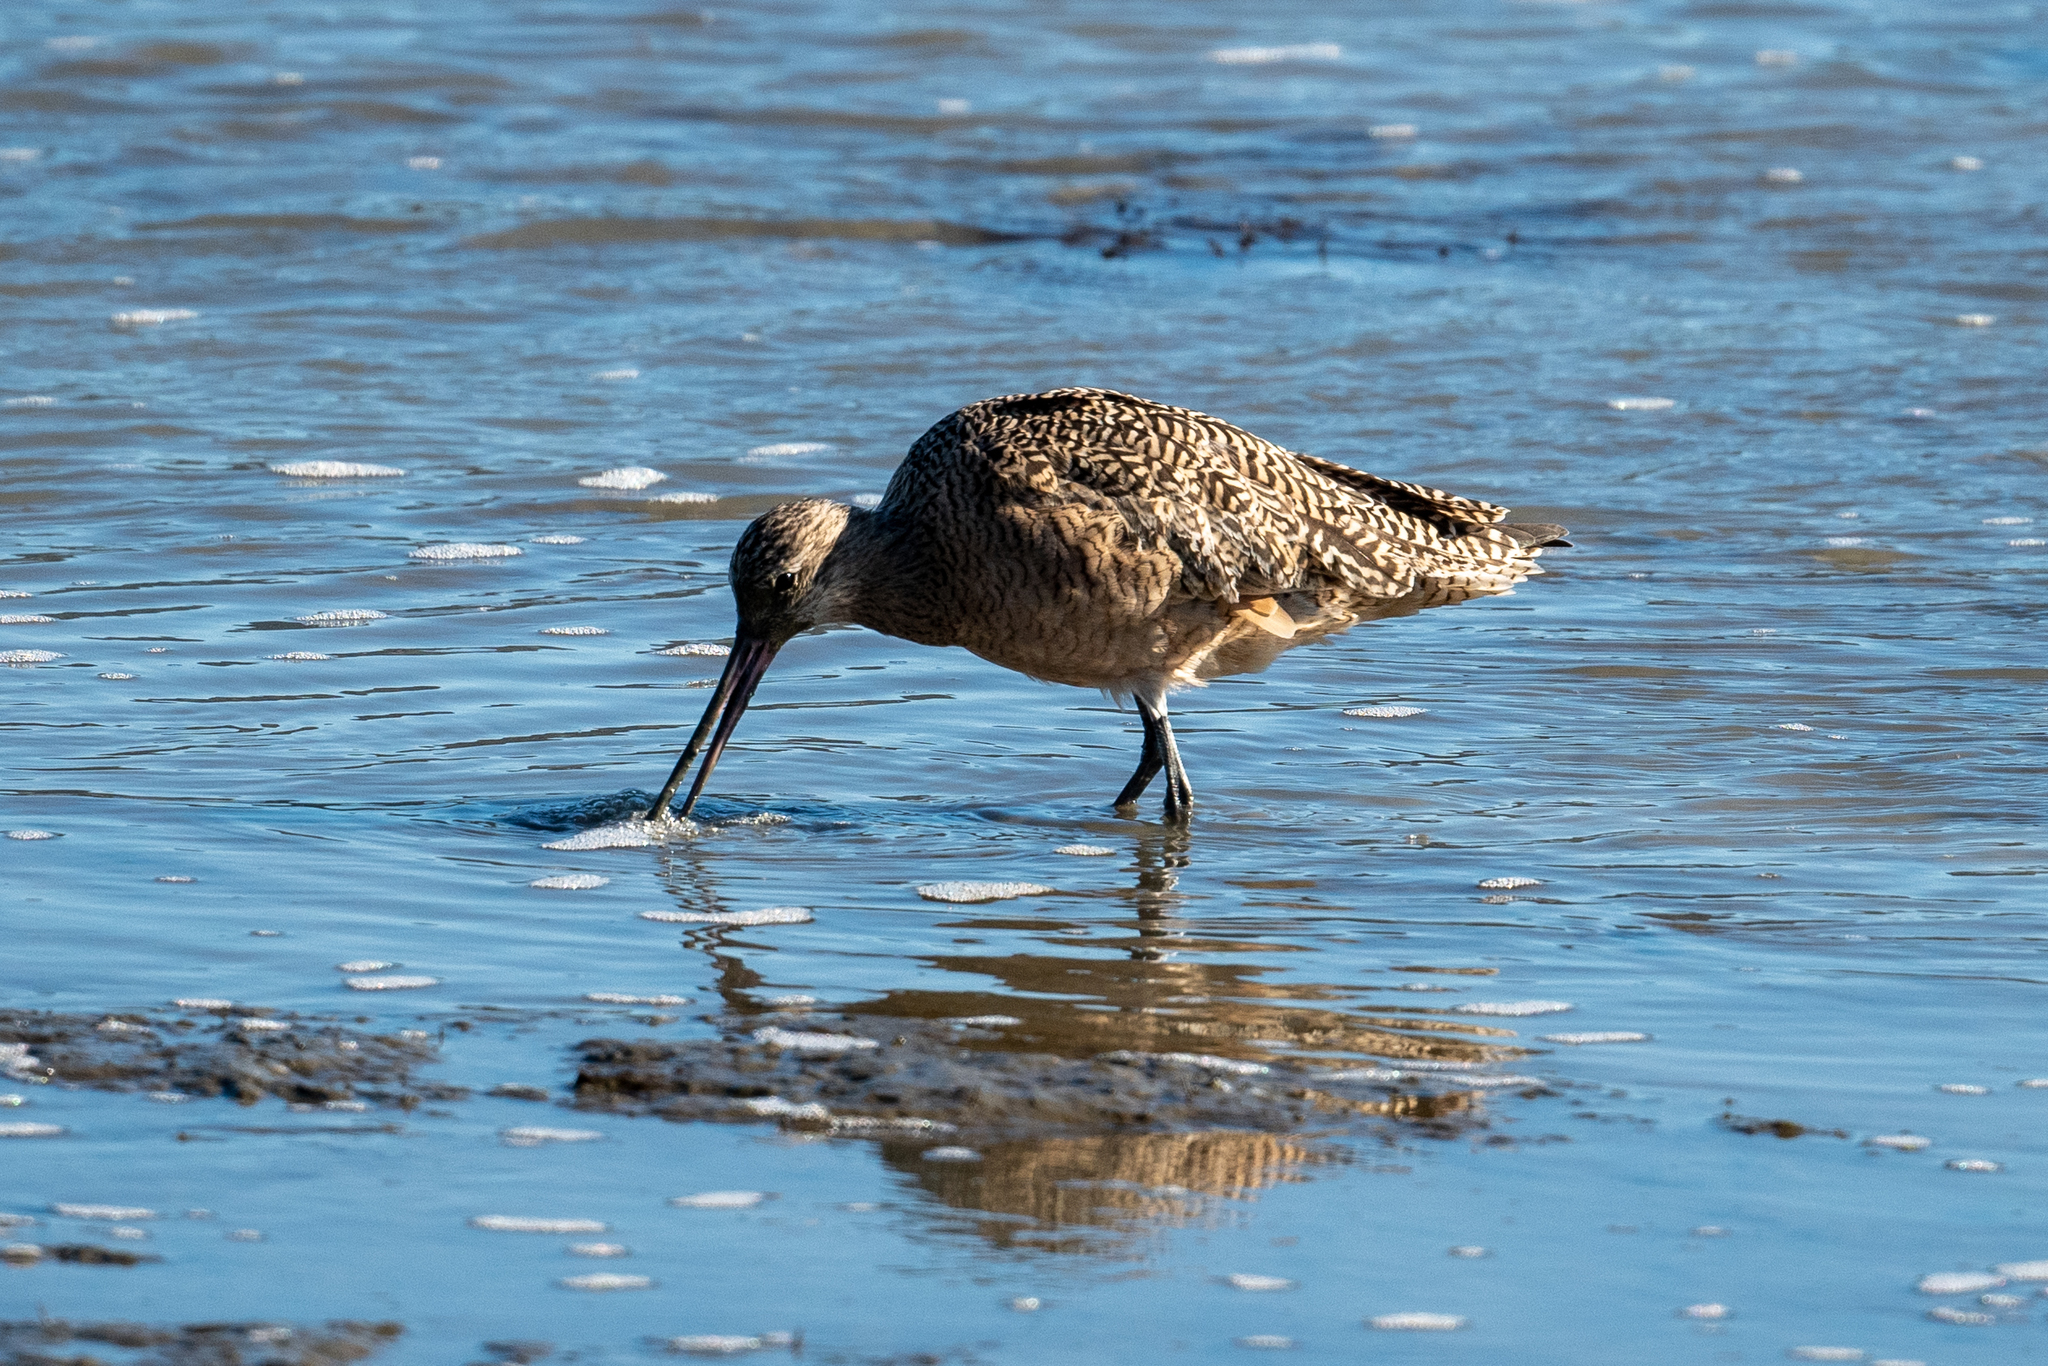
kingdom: Animalia
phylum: Chordata
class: Aves
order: Charadriiformes
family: Scolopacidae
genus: Limosa
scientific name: Limosa fedoa
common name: Marbled godwit
